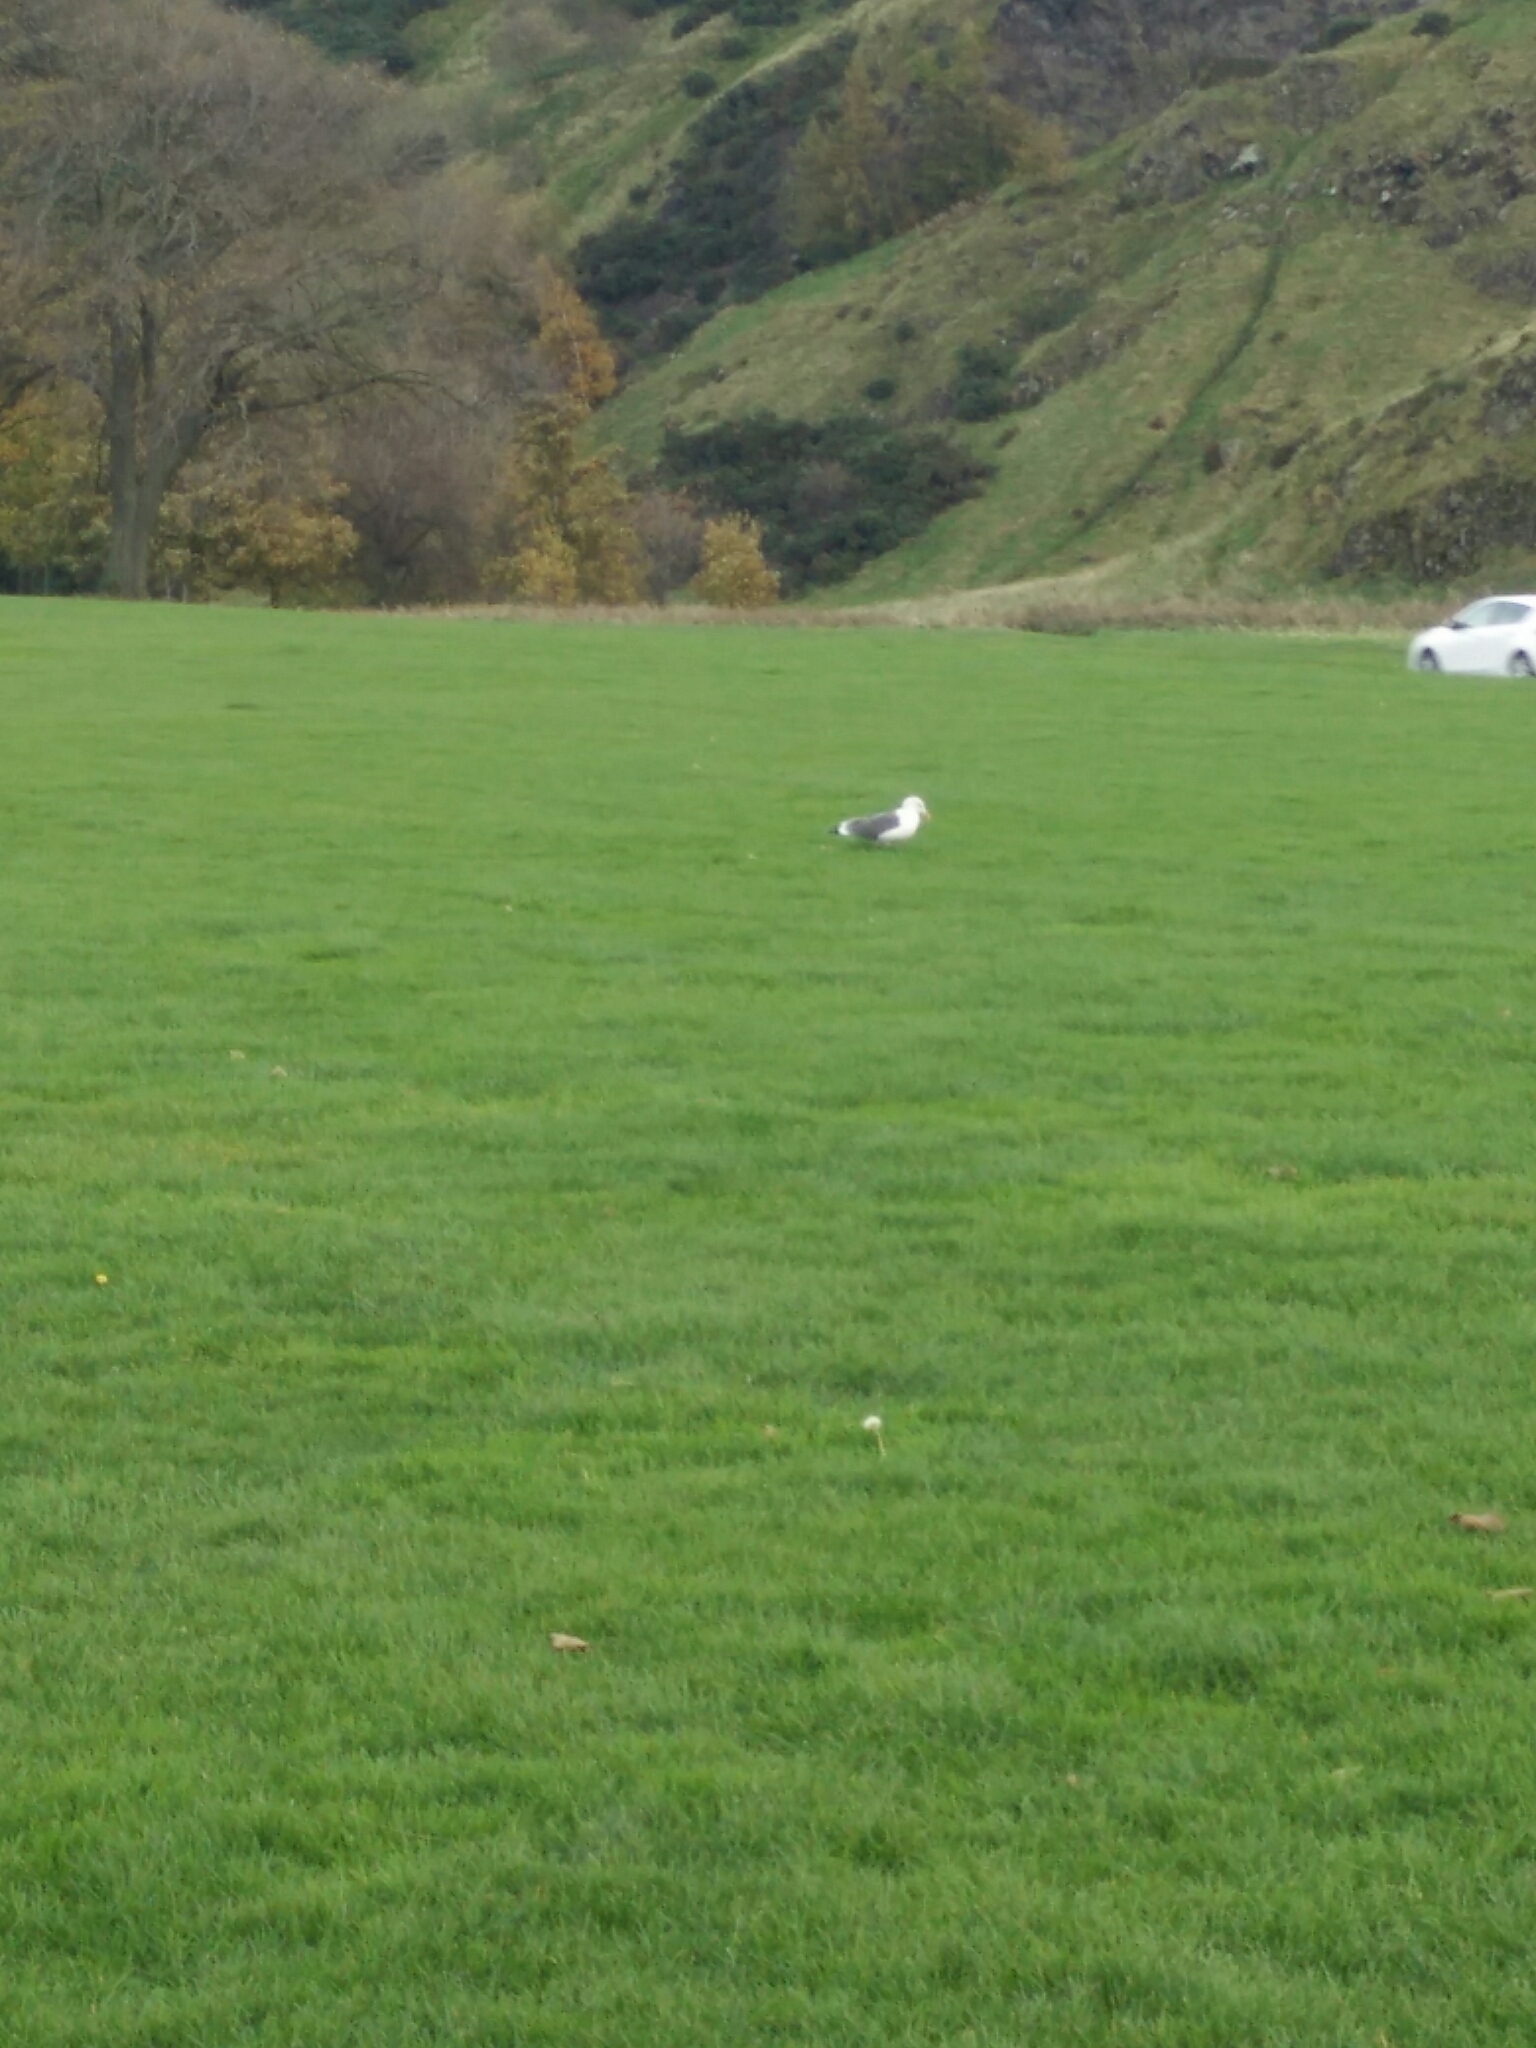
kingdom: Animalia
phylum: Chordata
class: Aves
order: Charadriiformes
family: Laridae
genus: Larus
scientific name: Larus fuscus
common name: Lesser black-backed gull
